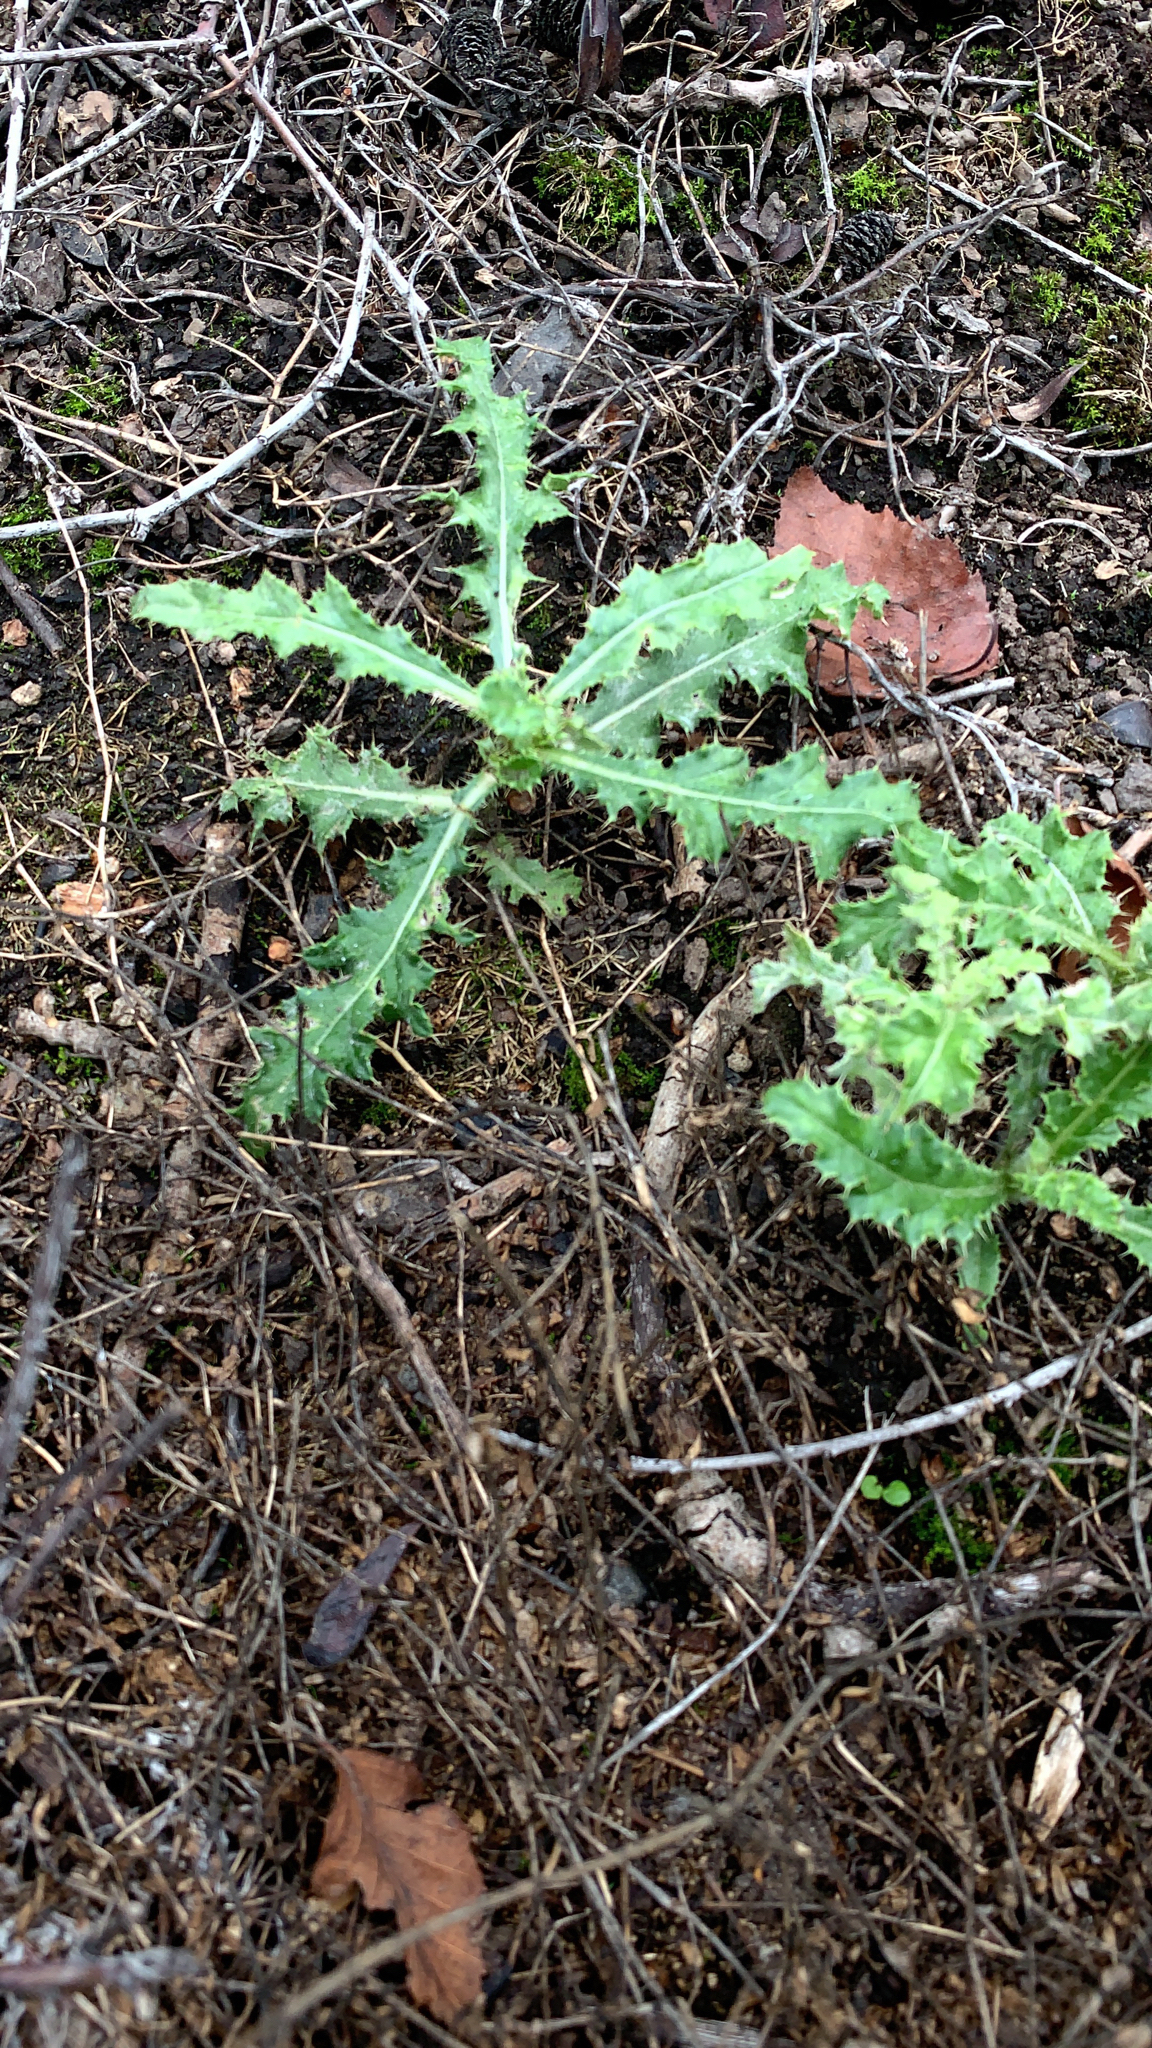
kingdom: Plantae
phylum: Tracheophyta
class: Magnoliopsida
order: Asterales
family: Asteraceae
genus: Cirsium
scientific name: Cirsium arvense
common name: Creeping thistle
